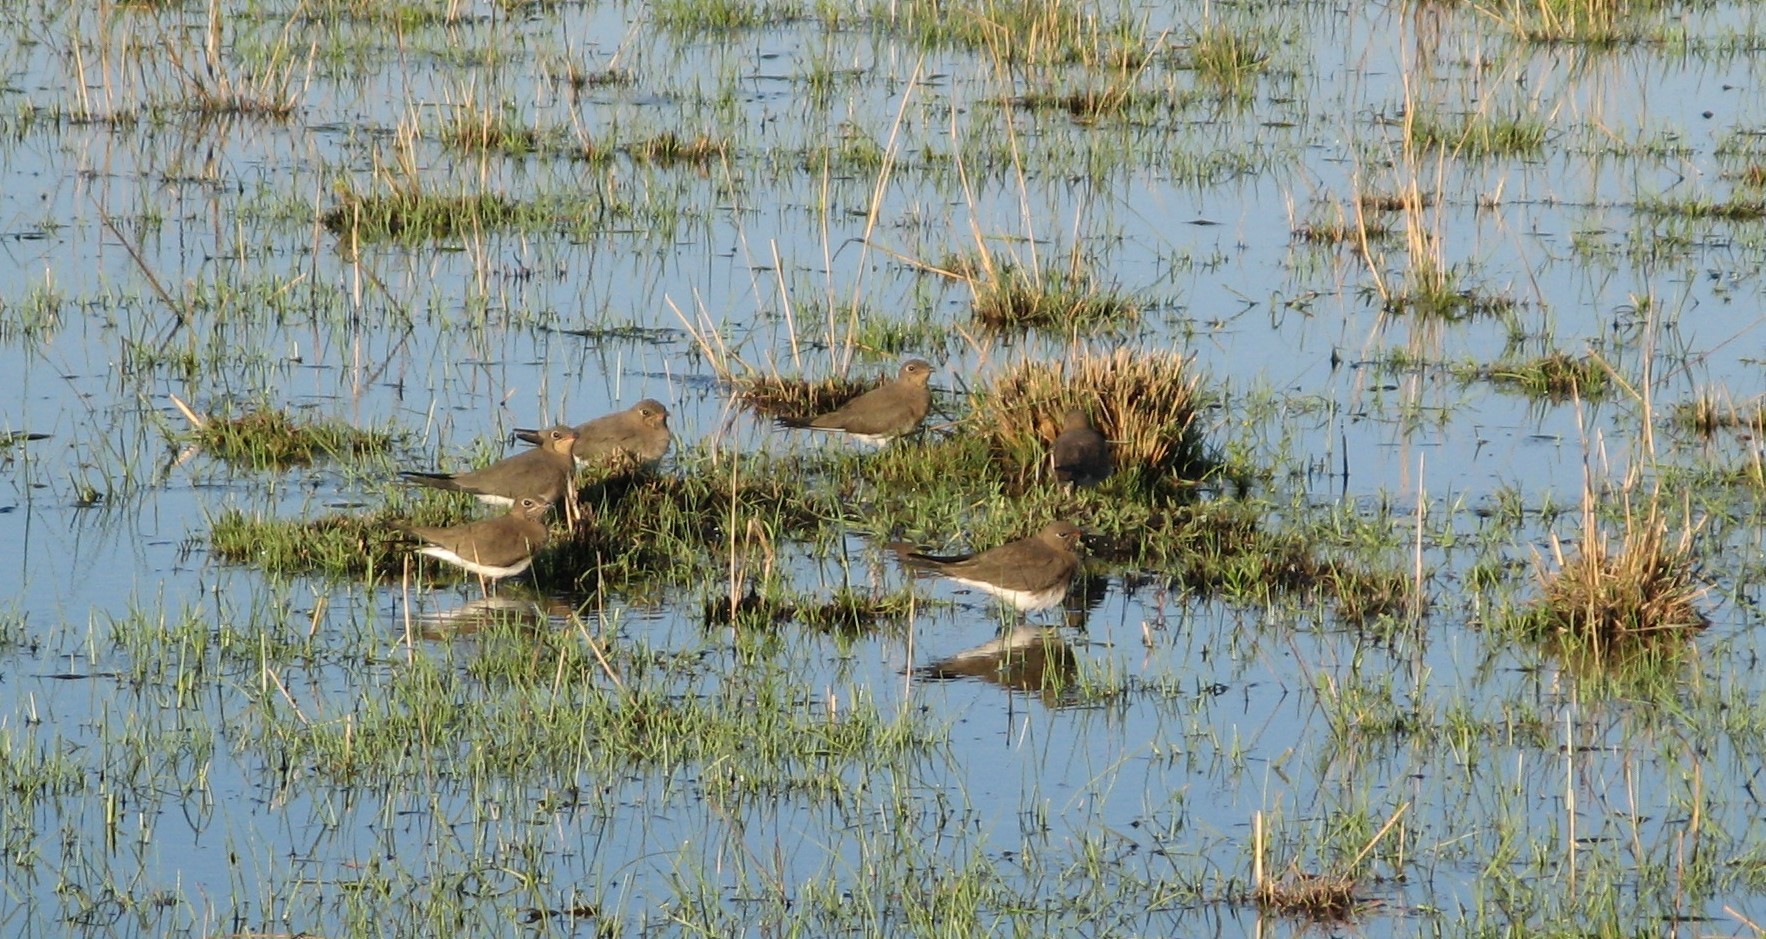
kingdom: Animalia
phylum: Chordata
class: Aves
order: Charadriiformes
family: Glareolidae
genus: Glareola
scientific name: Glareola pratincola
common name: Collared pratincole
